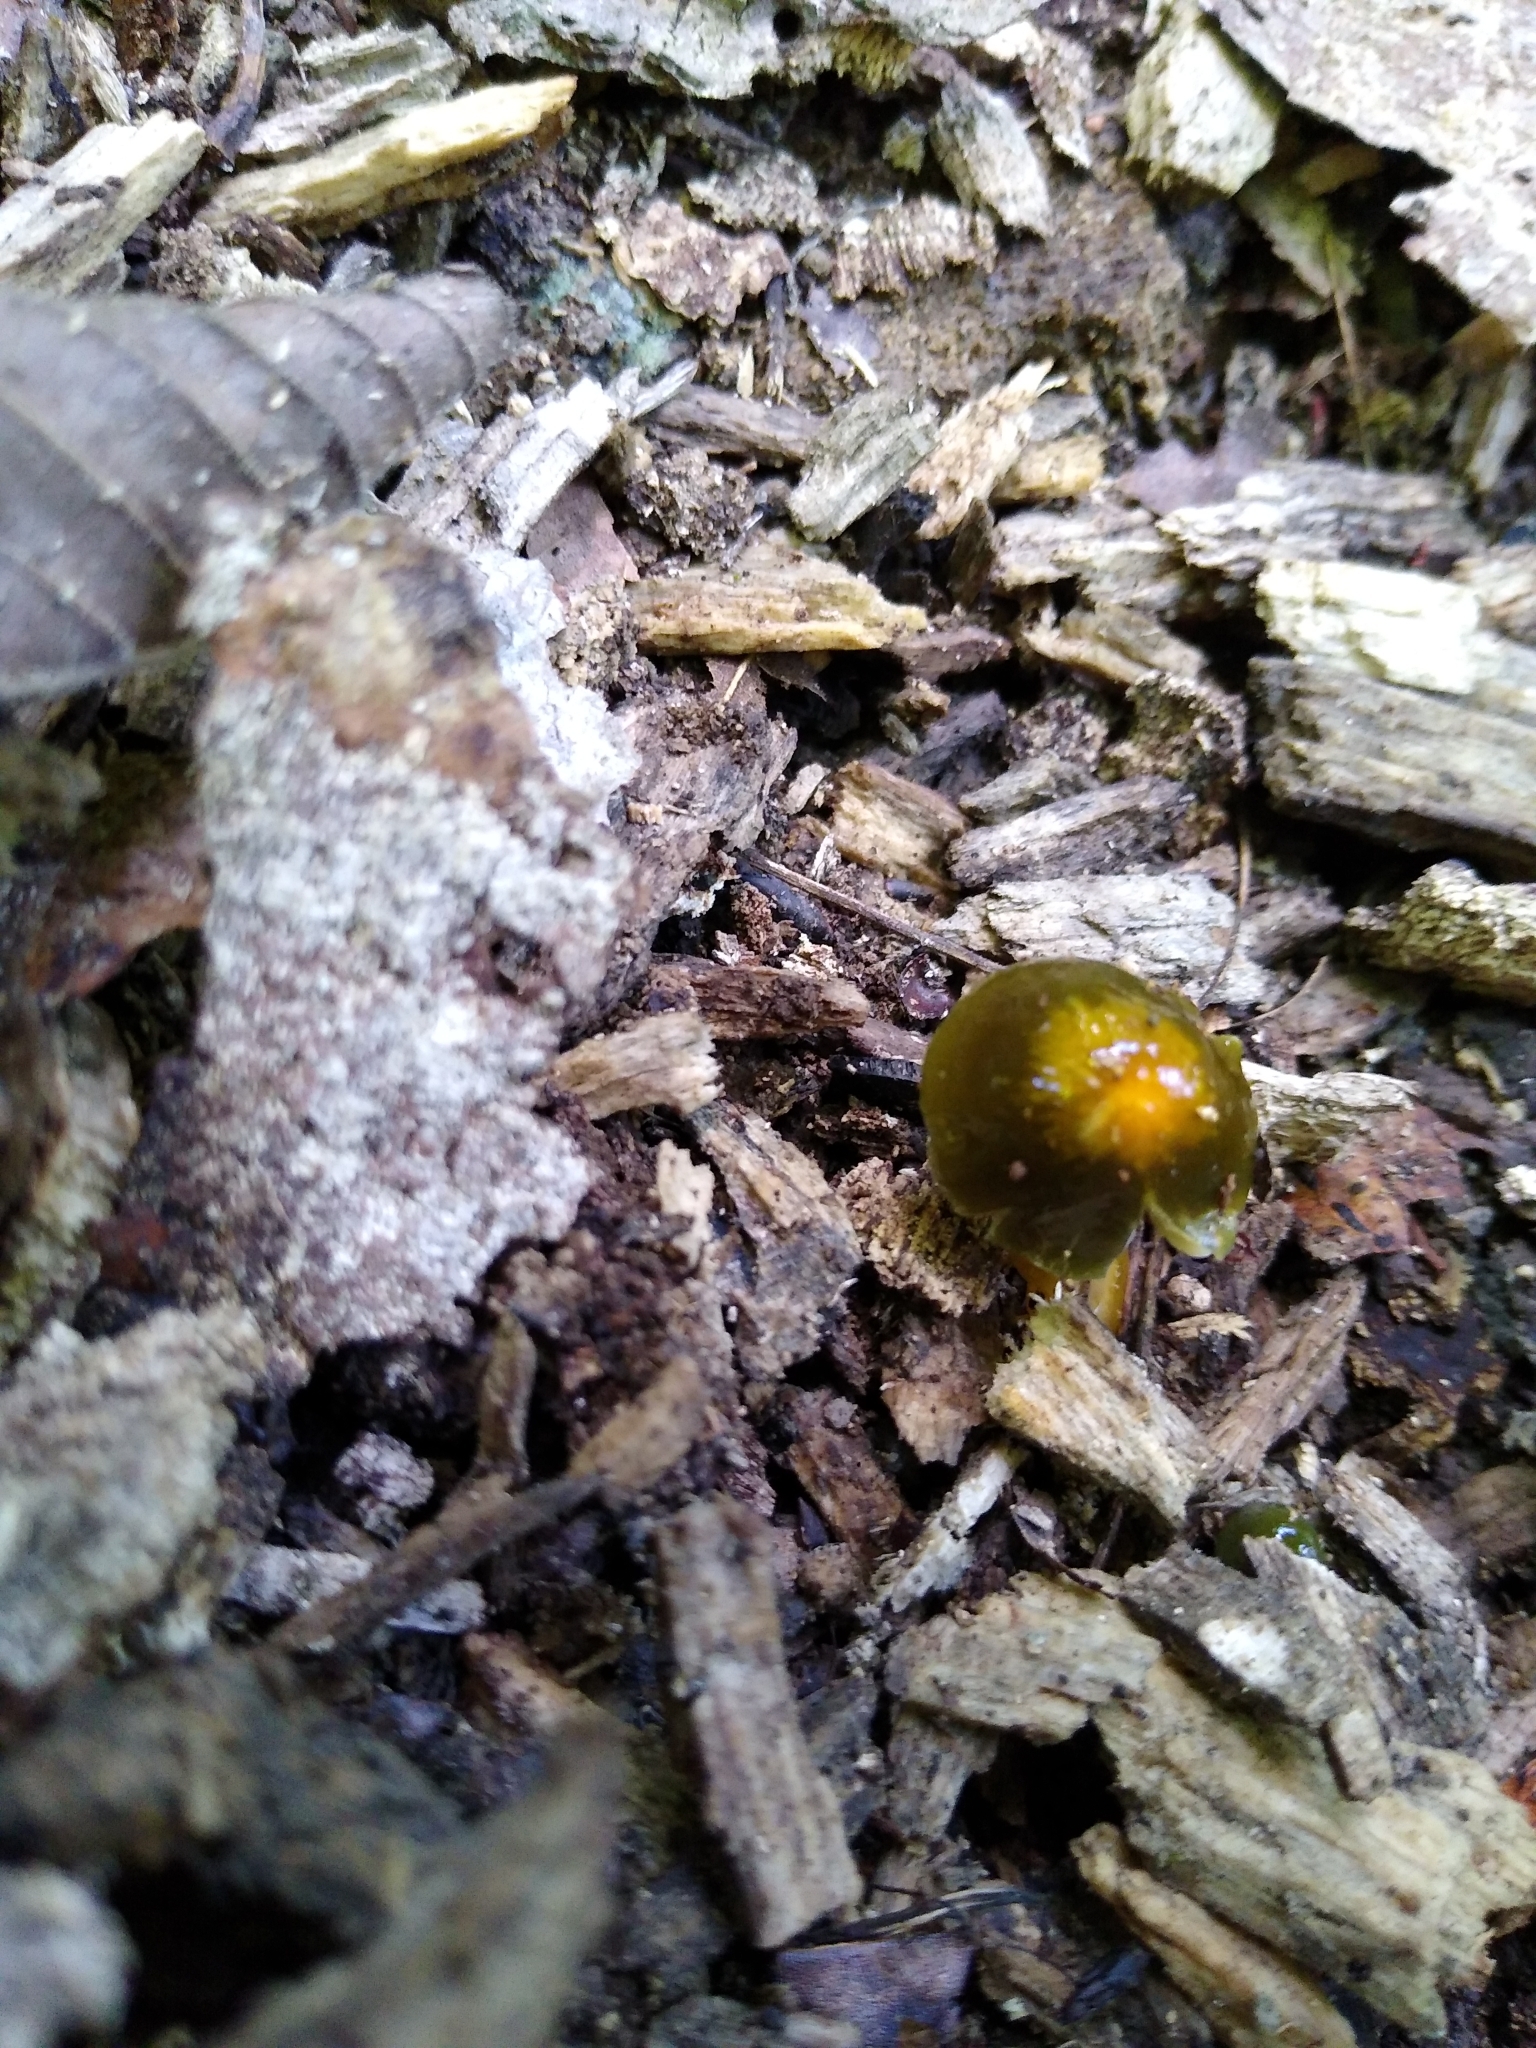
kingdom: Fungi
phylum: Basidiomycota
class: Agaricomycetes
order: Agaricales
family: Hygrophoraceae
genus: Gliophorus
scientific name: Gliophorus psittacinus
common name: Parrot wax-cap
